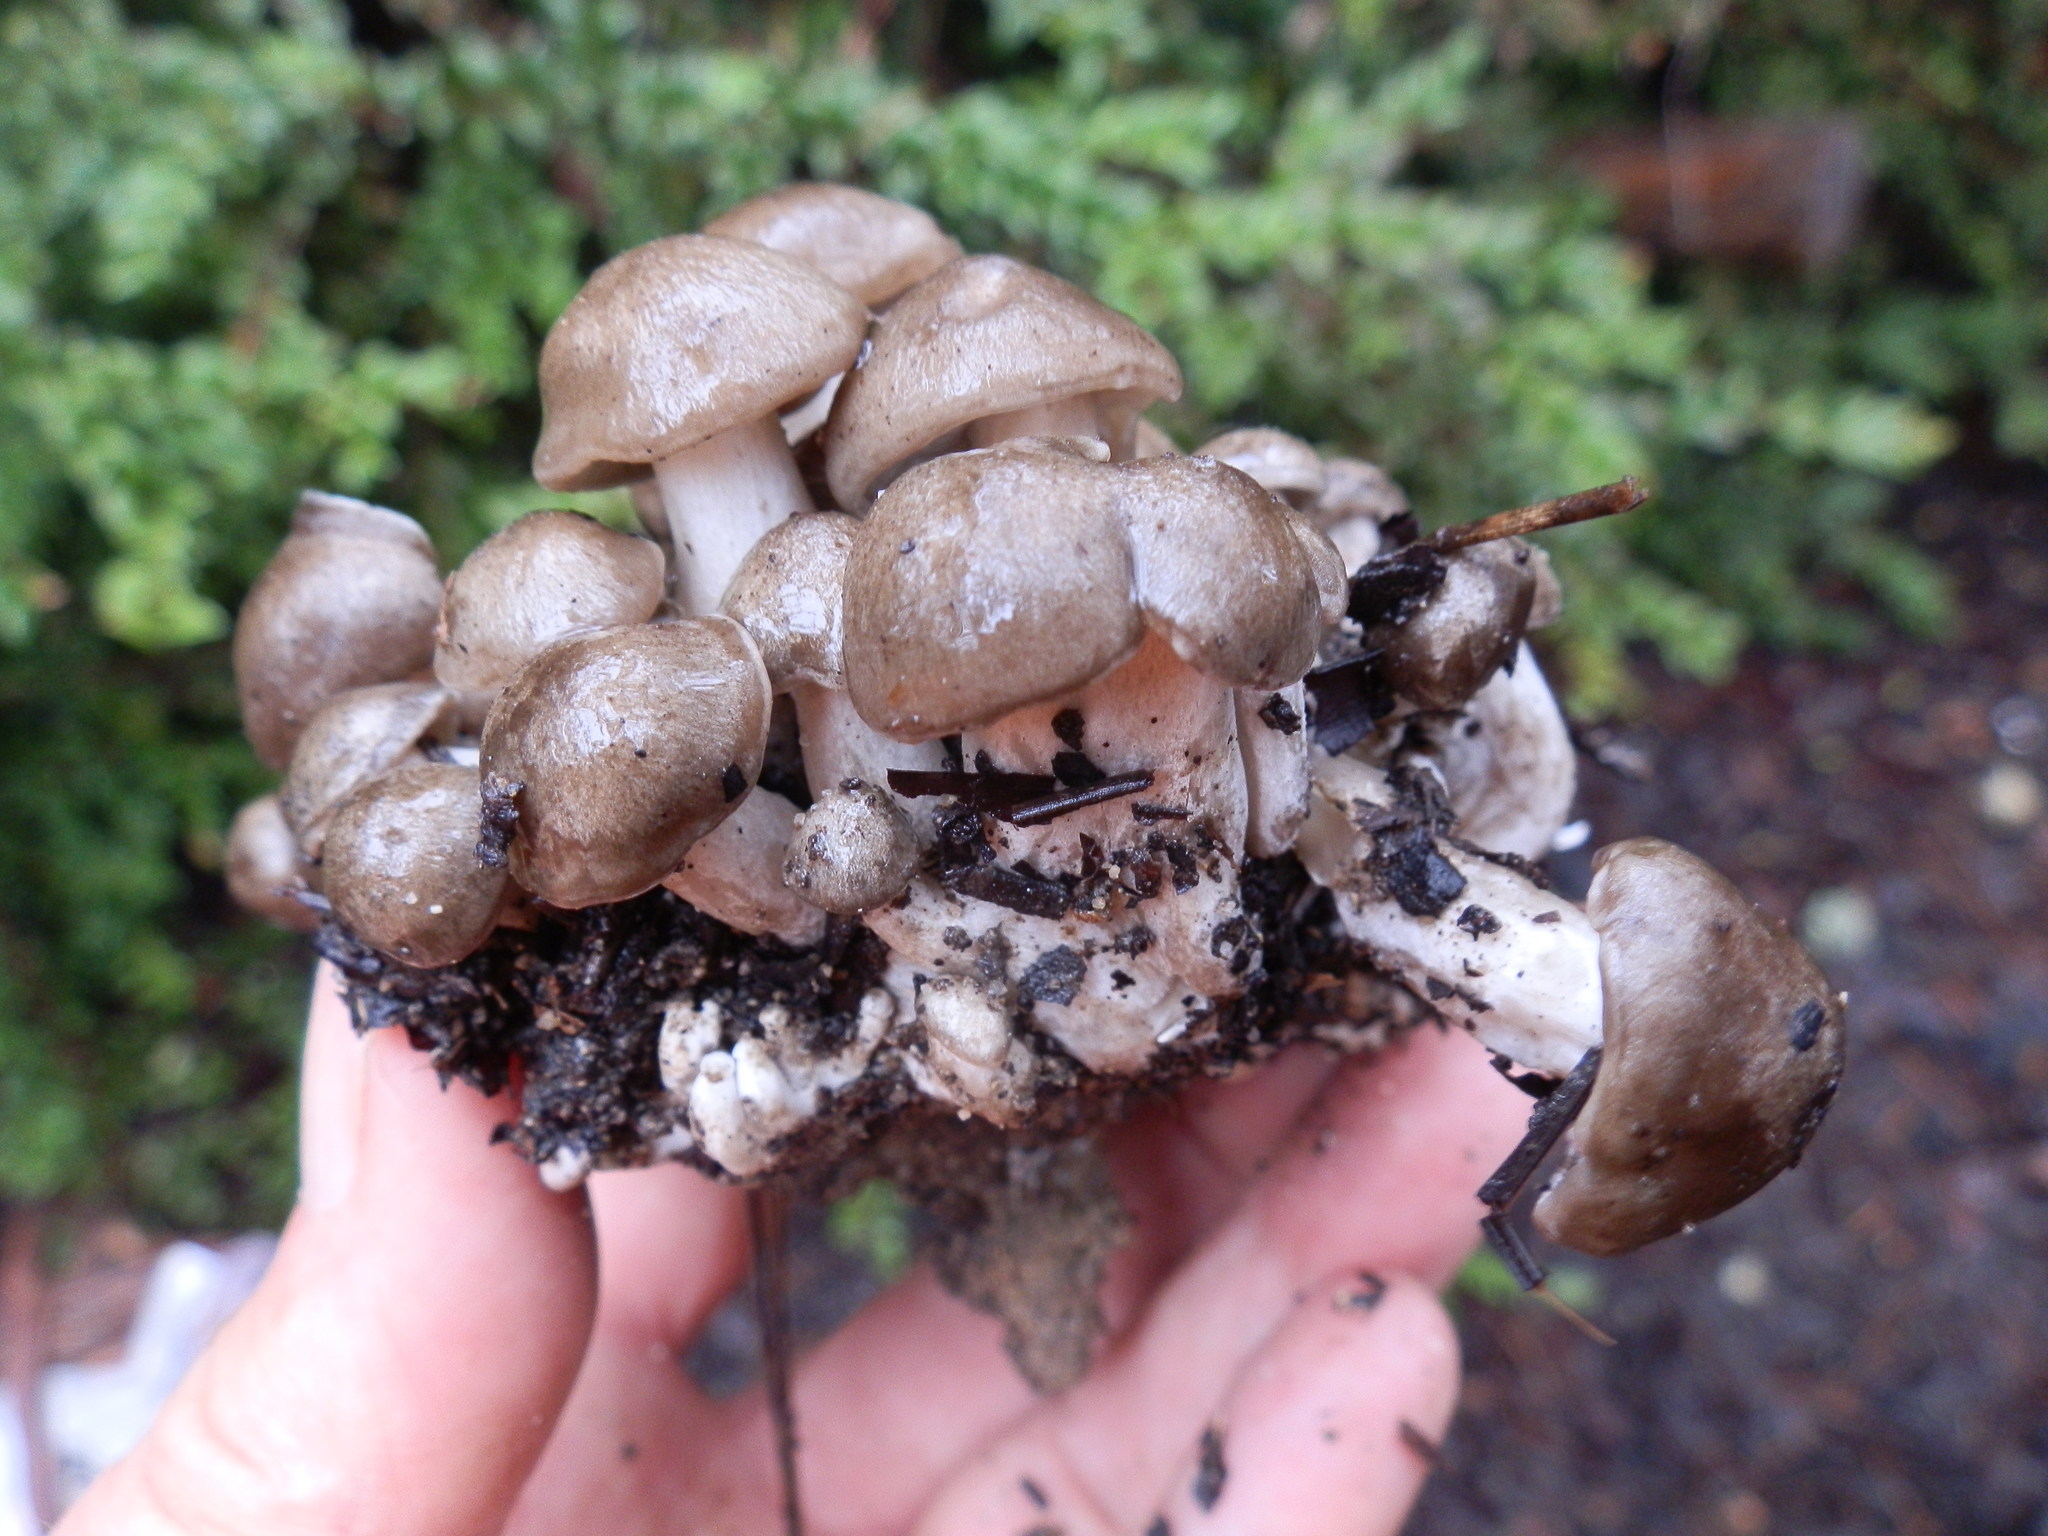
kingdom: Fungi
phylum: Basidiomycota
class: Agaricomycetes
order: Agaricales
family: Lyophyllaceae
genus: Lyophyllum
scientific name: Lyophyllum decastes
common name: Clustered domecap
